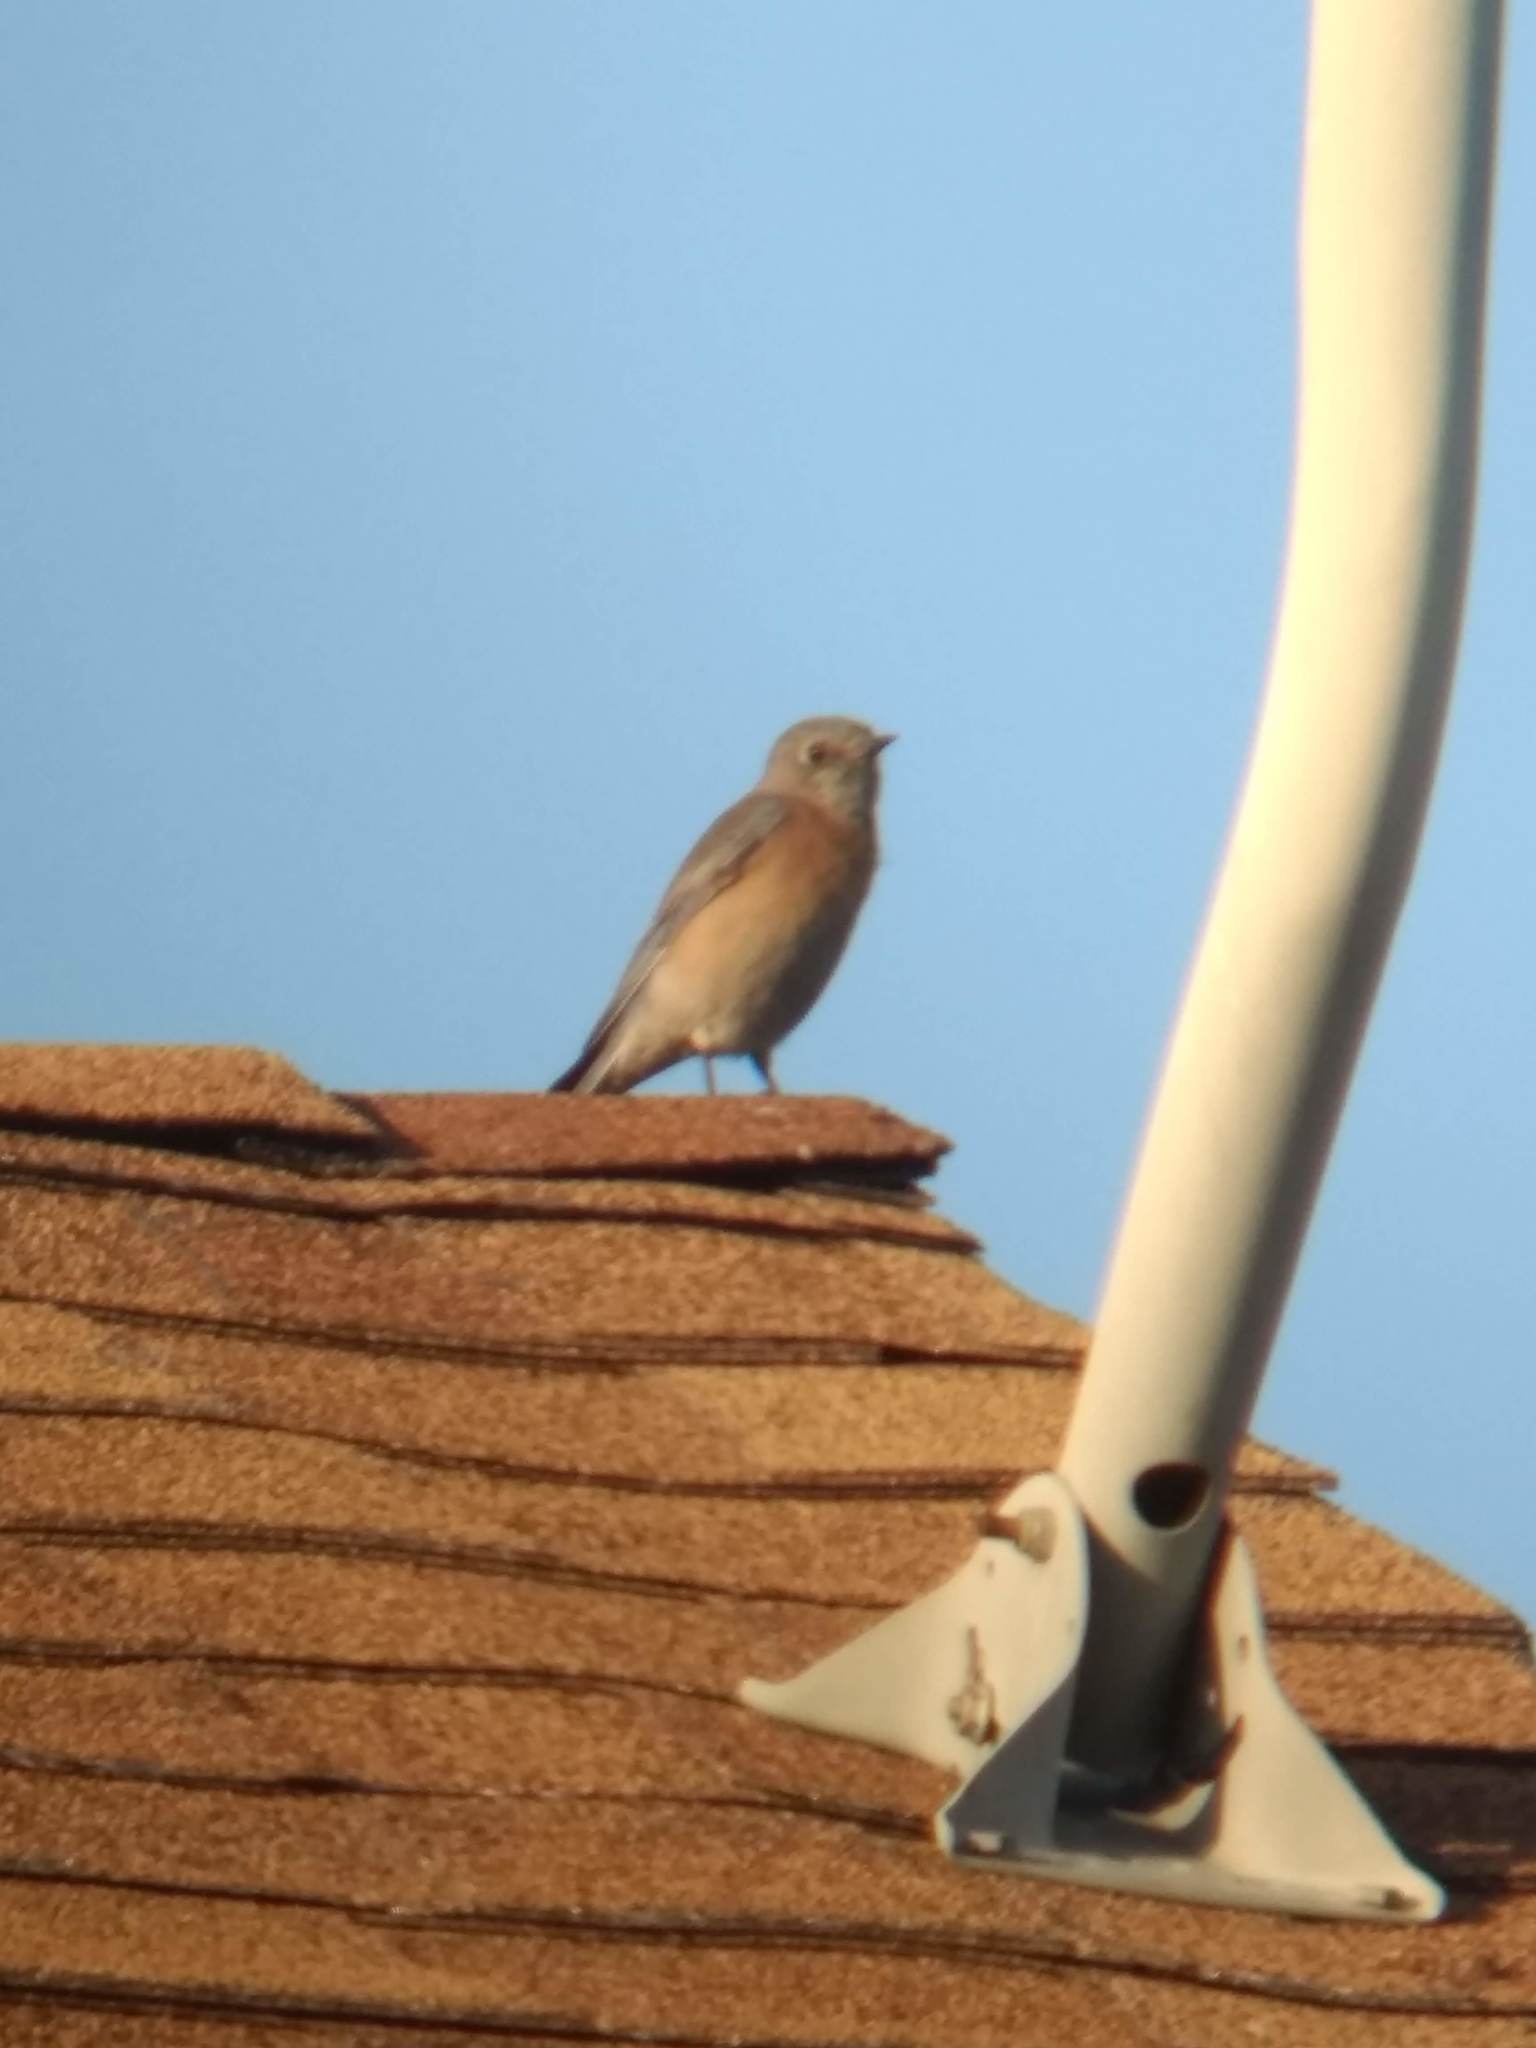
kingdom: Animalia
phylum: Chordata
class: Aves
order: Passeriformes
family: Turdidae
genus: Sialia
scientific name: Sialia mexicana
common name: Western bluebird
